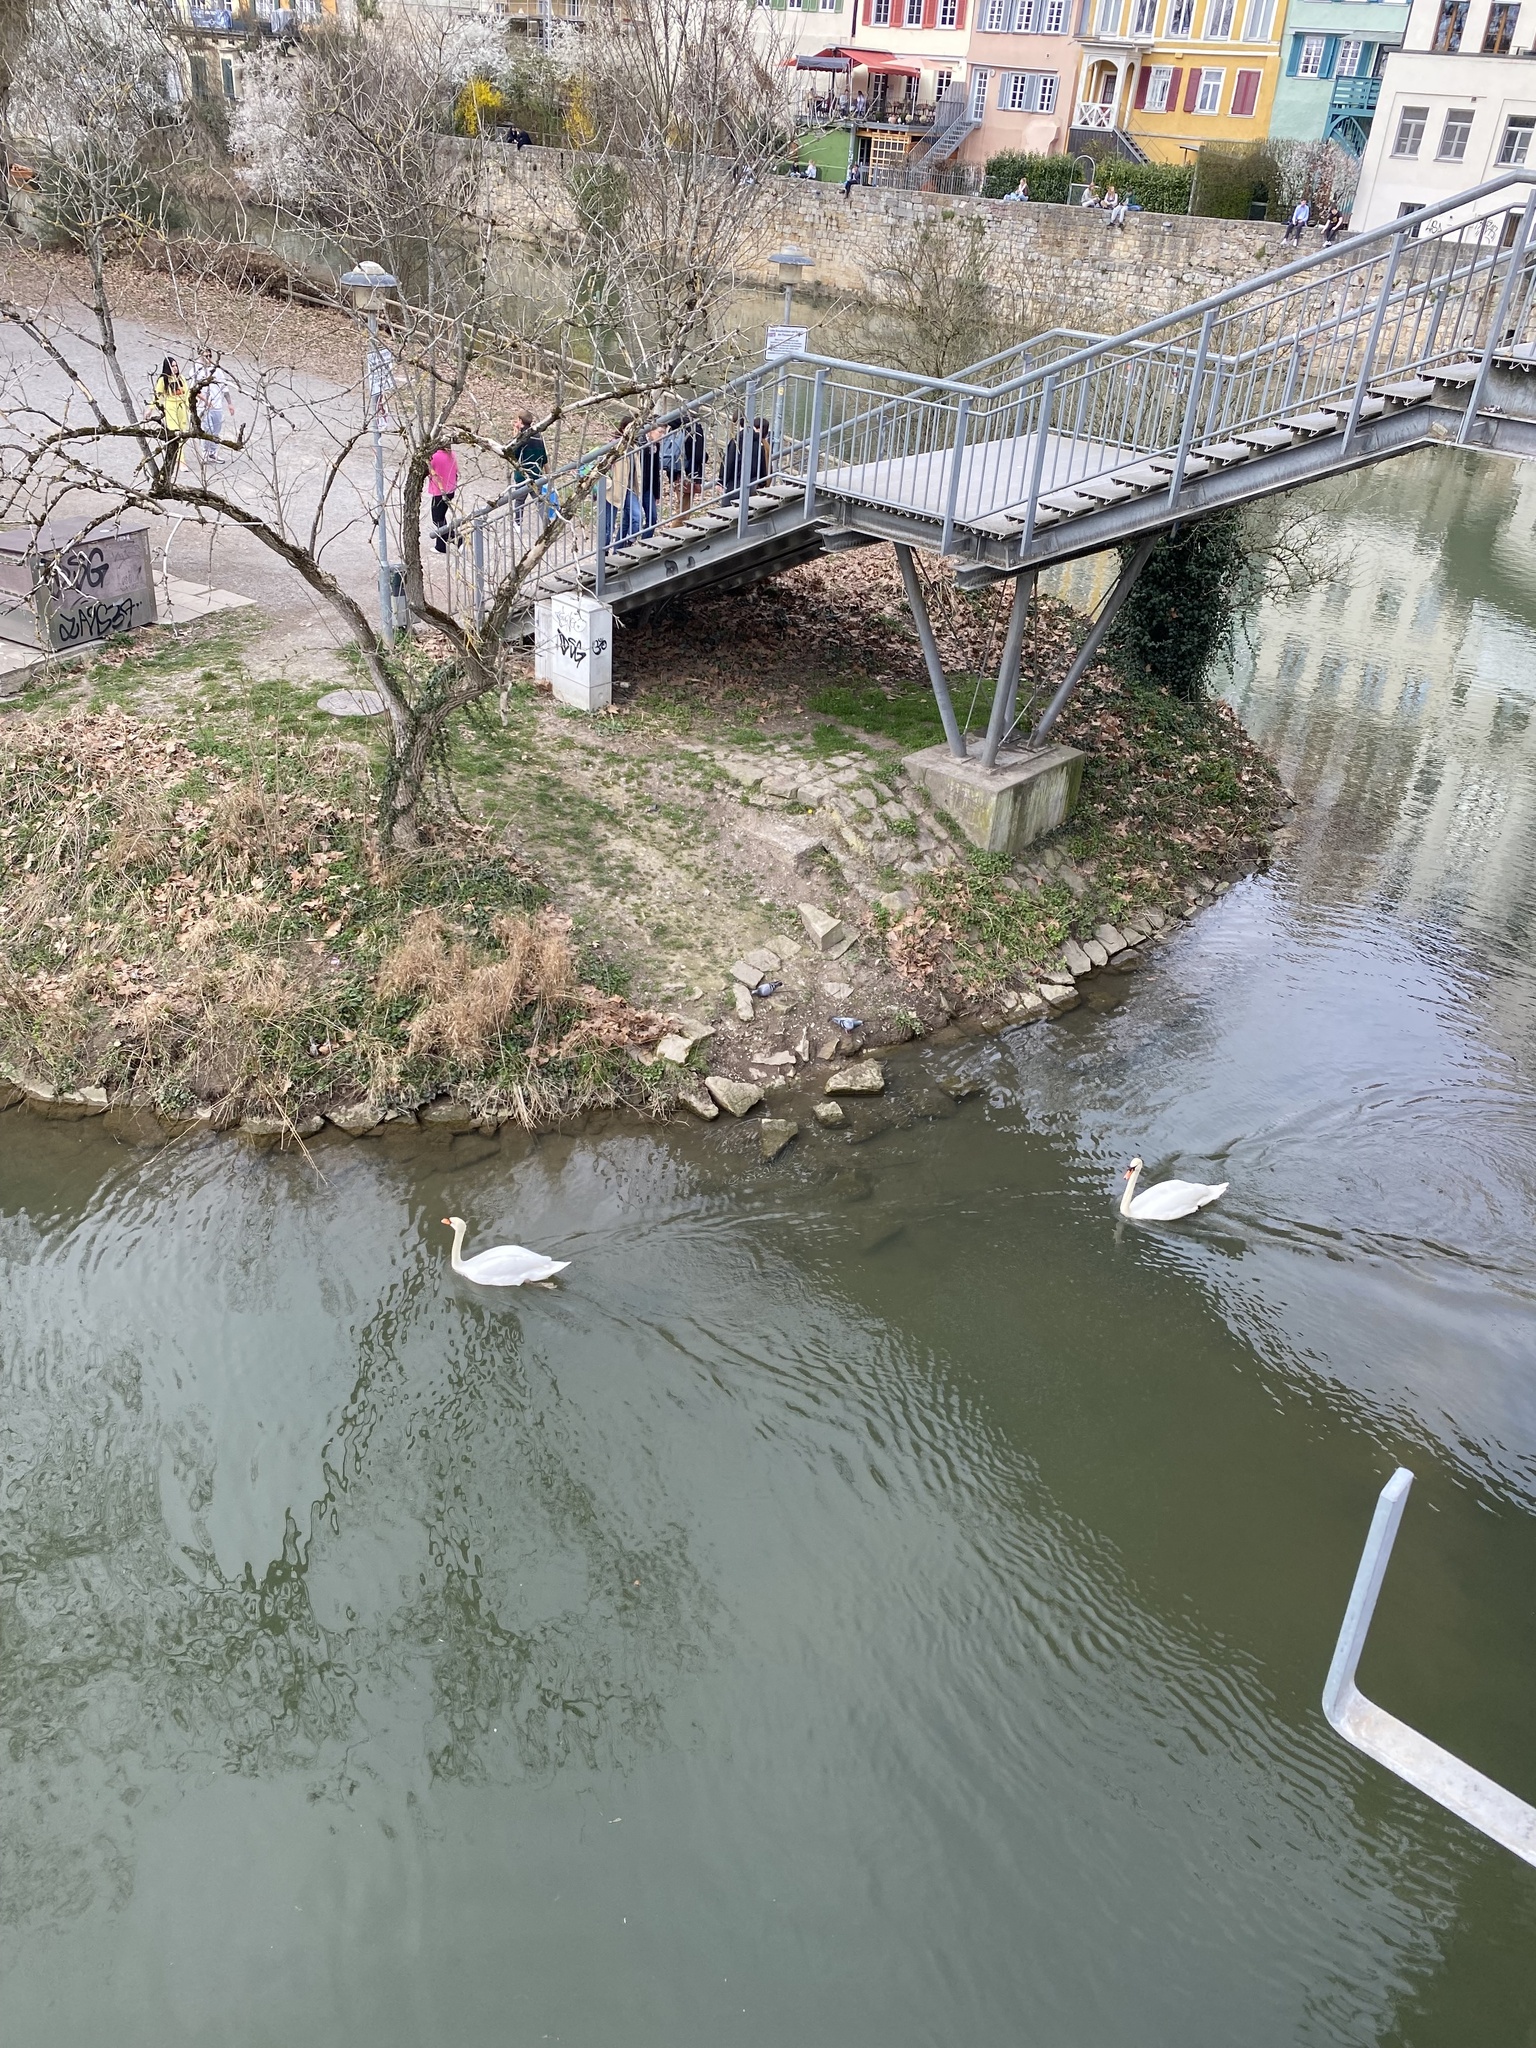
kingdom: Animalia
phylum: Chordata
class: Aves
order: Anseriformes
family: Anatidae
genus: Cygnus
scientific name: Cygnus olor
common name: Mute swan
